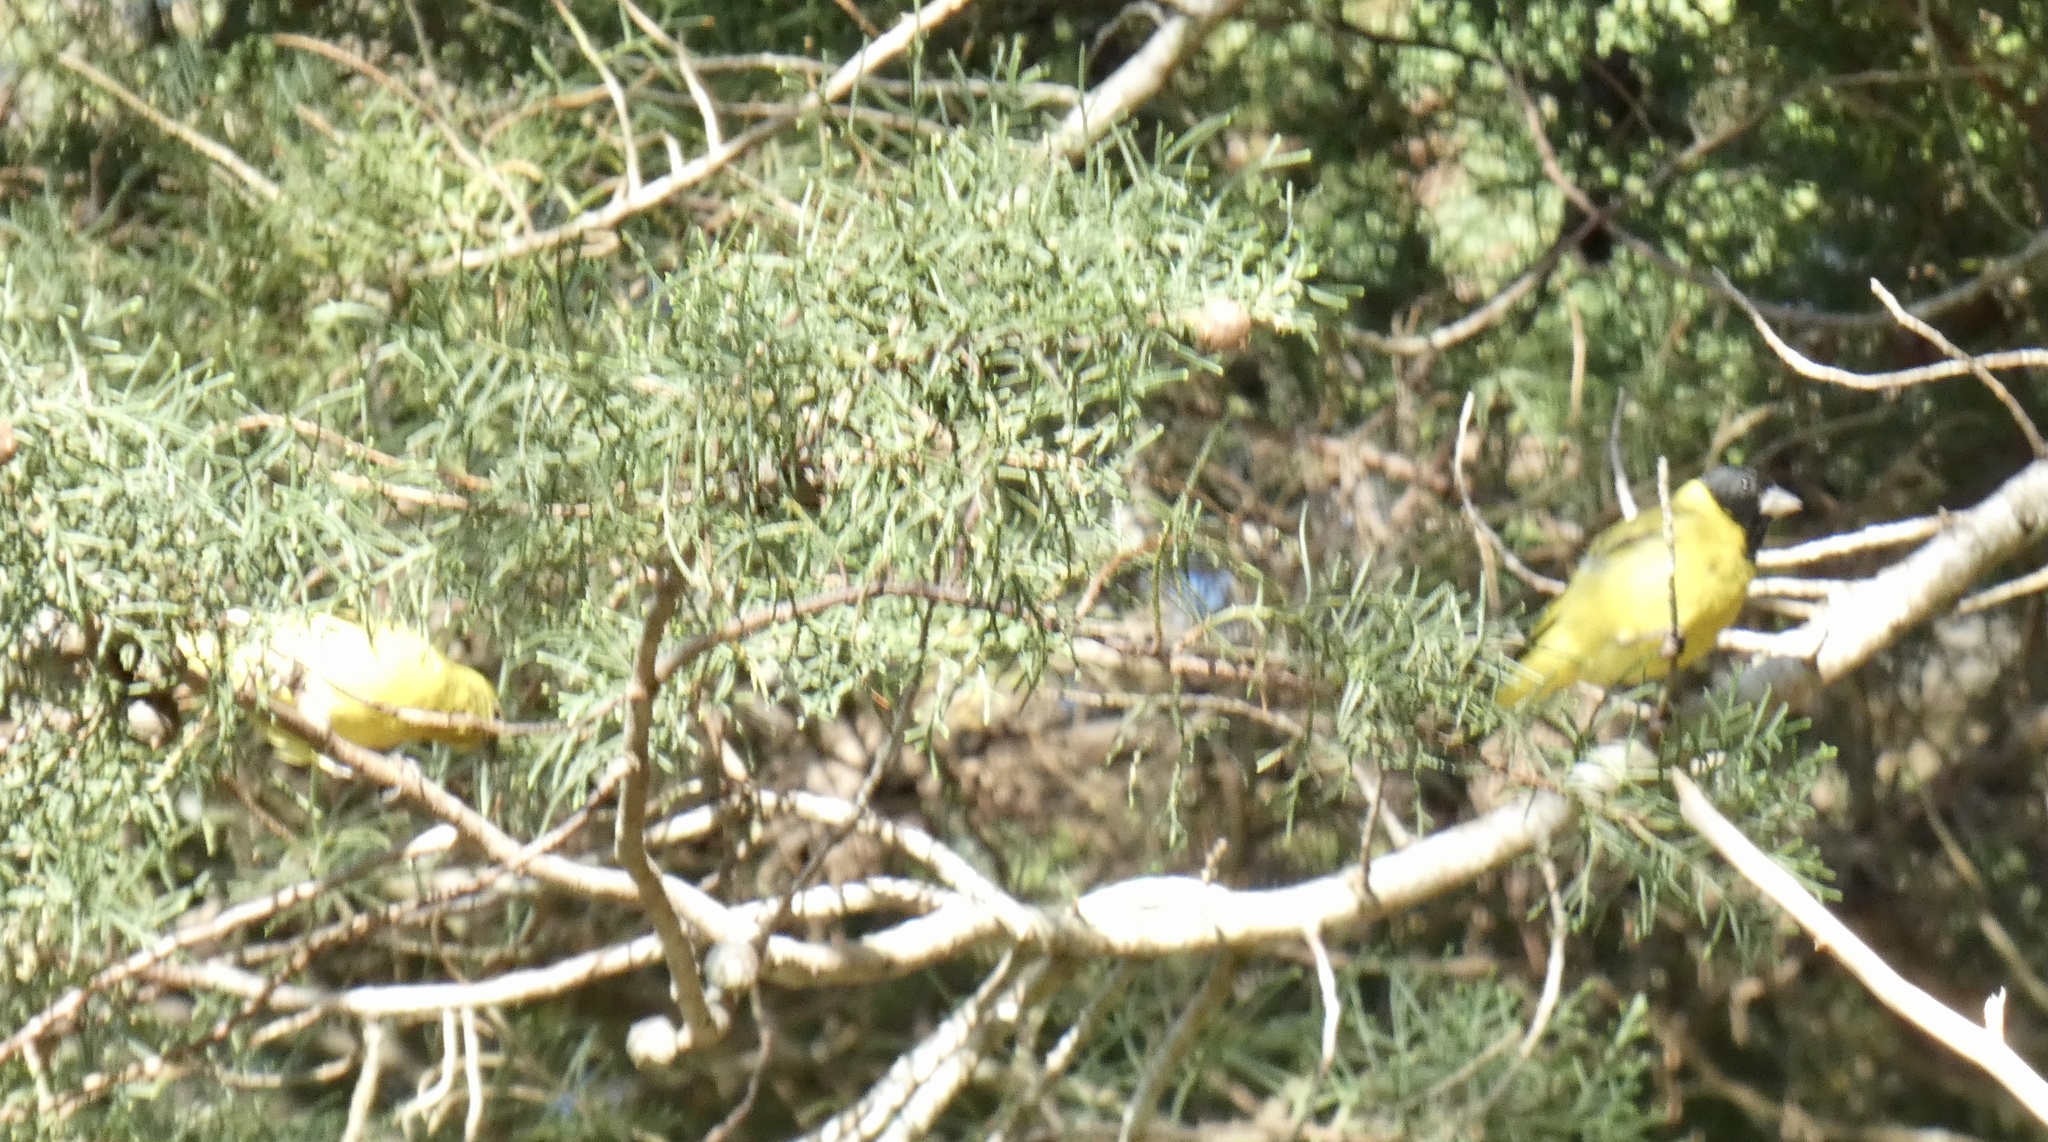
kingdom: Animalia
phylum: Chordata
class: Aves
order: Passeriformes
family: Fringillidae
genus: Spinus
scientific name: Spinus magellanicus
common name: Hooded siskin
